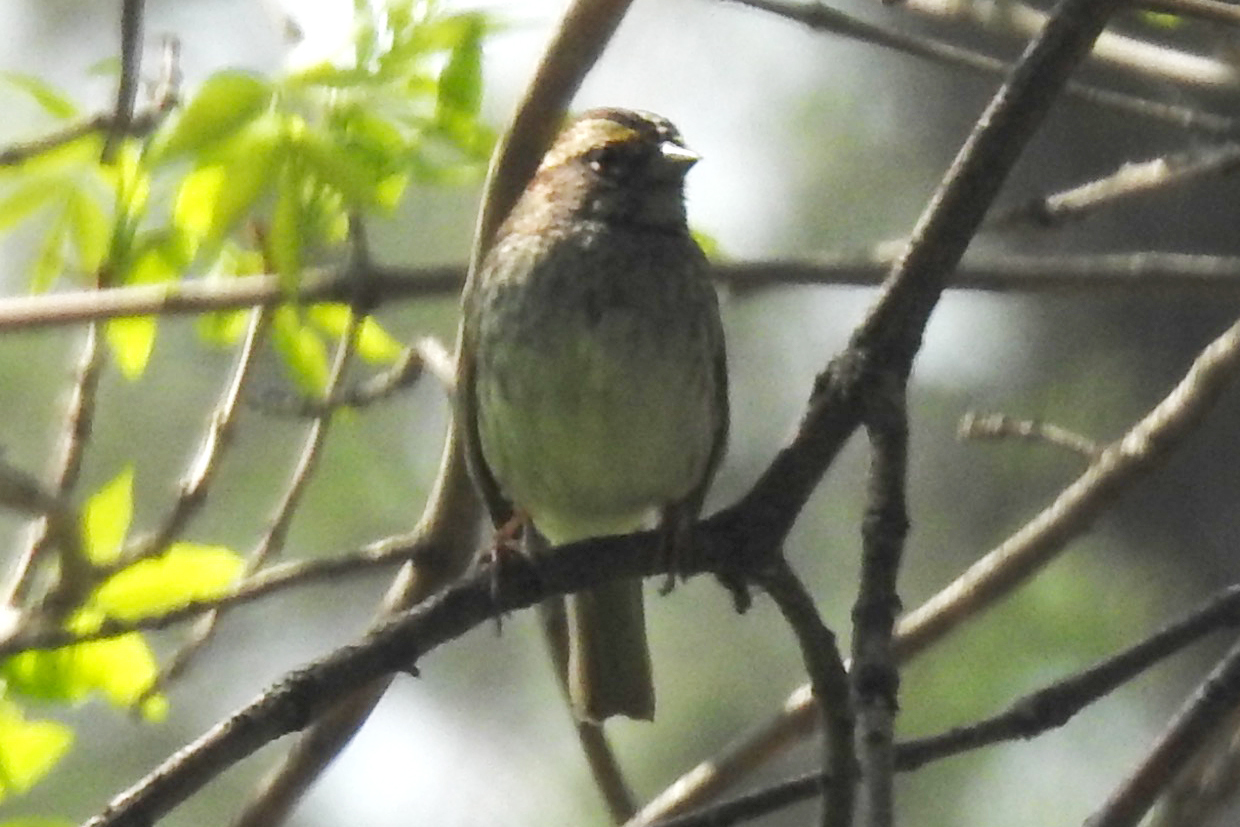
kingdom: Animalia
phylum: Chordata
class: Aves
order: Passeriformes
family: Passerellidae
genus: Zonotrichia
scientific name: Zonotrichia albicollis
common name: White-throated sparrow
